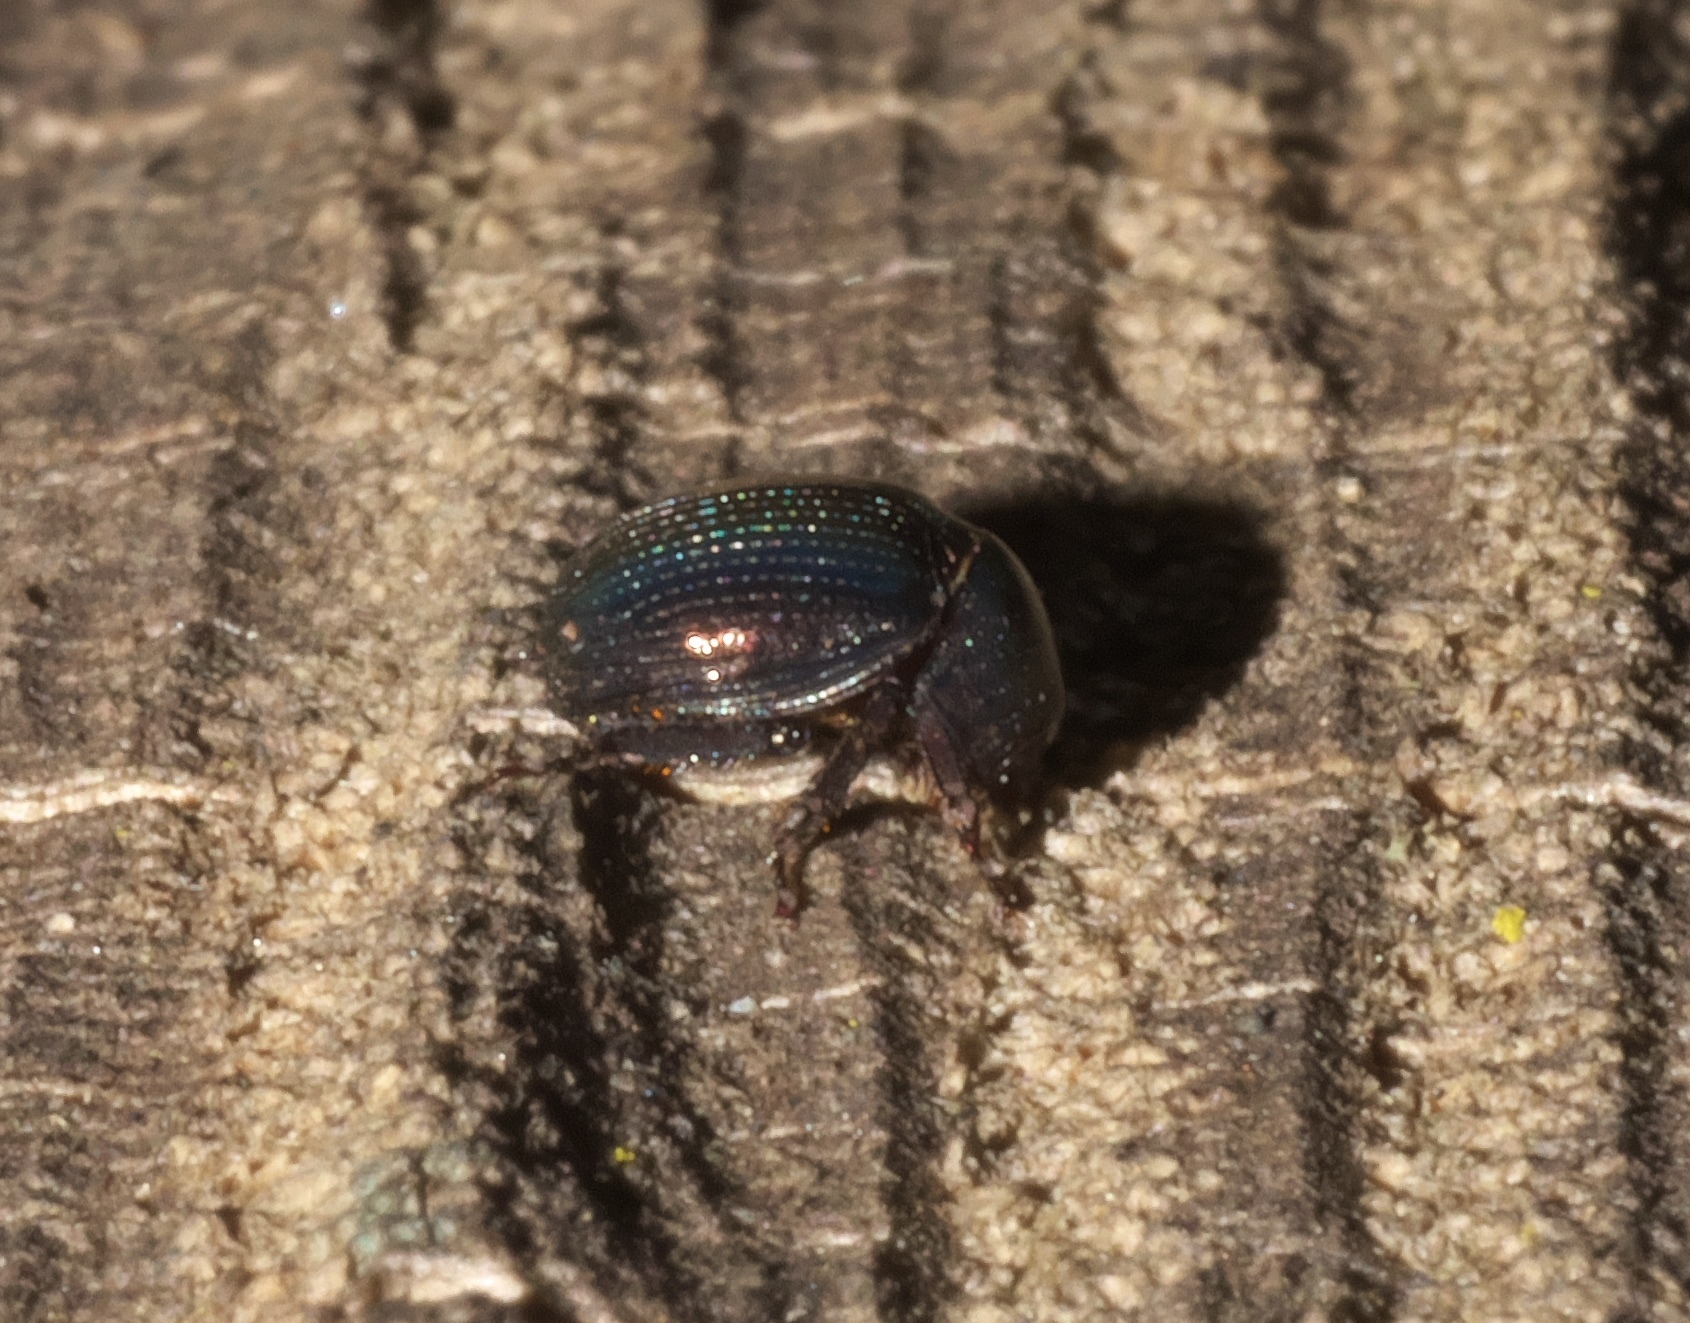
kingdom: Animalia
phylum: Arthropoda
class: Insecta
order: Coleoptera
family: Hybosoridae
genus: Germarostes
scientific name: Germarostes aphodioides
